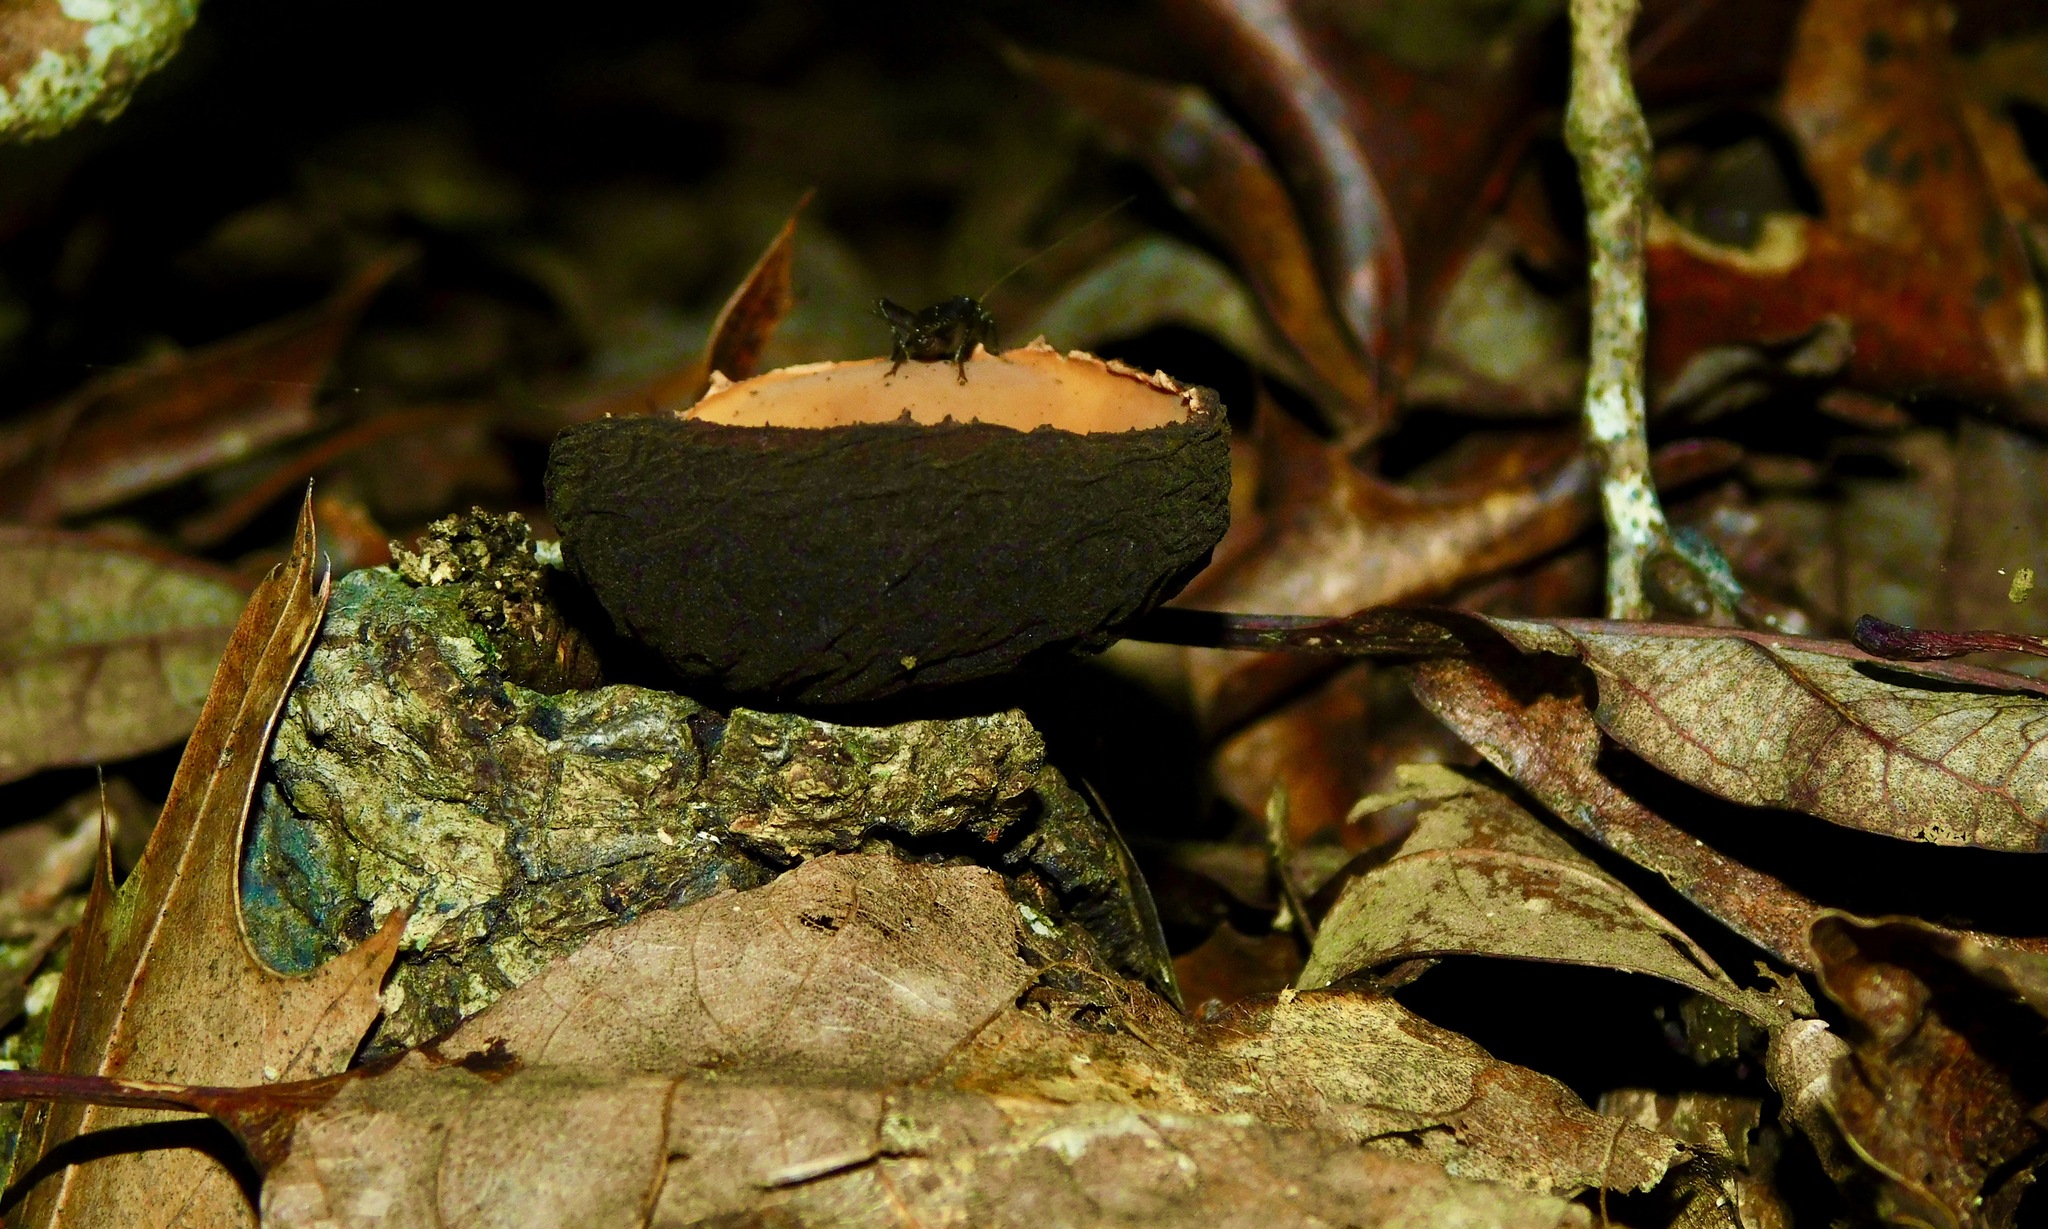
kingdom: Fungi
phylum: Ascomycota
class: Pezizomycetes
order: Pezizales
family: Sarcosomataceae
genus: Galiella
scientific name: Galiella rufa
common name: Hairy rubber cup
